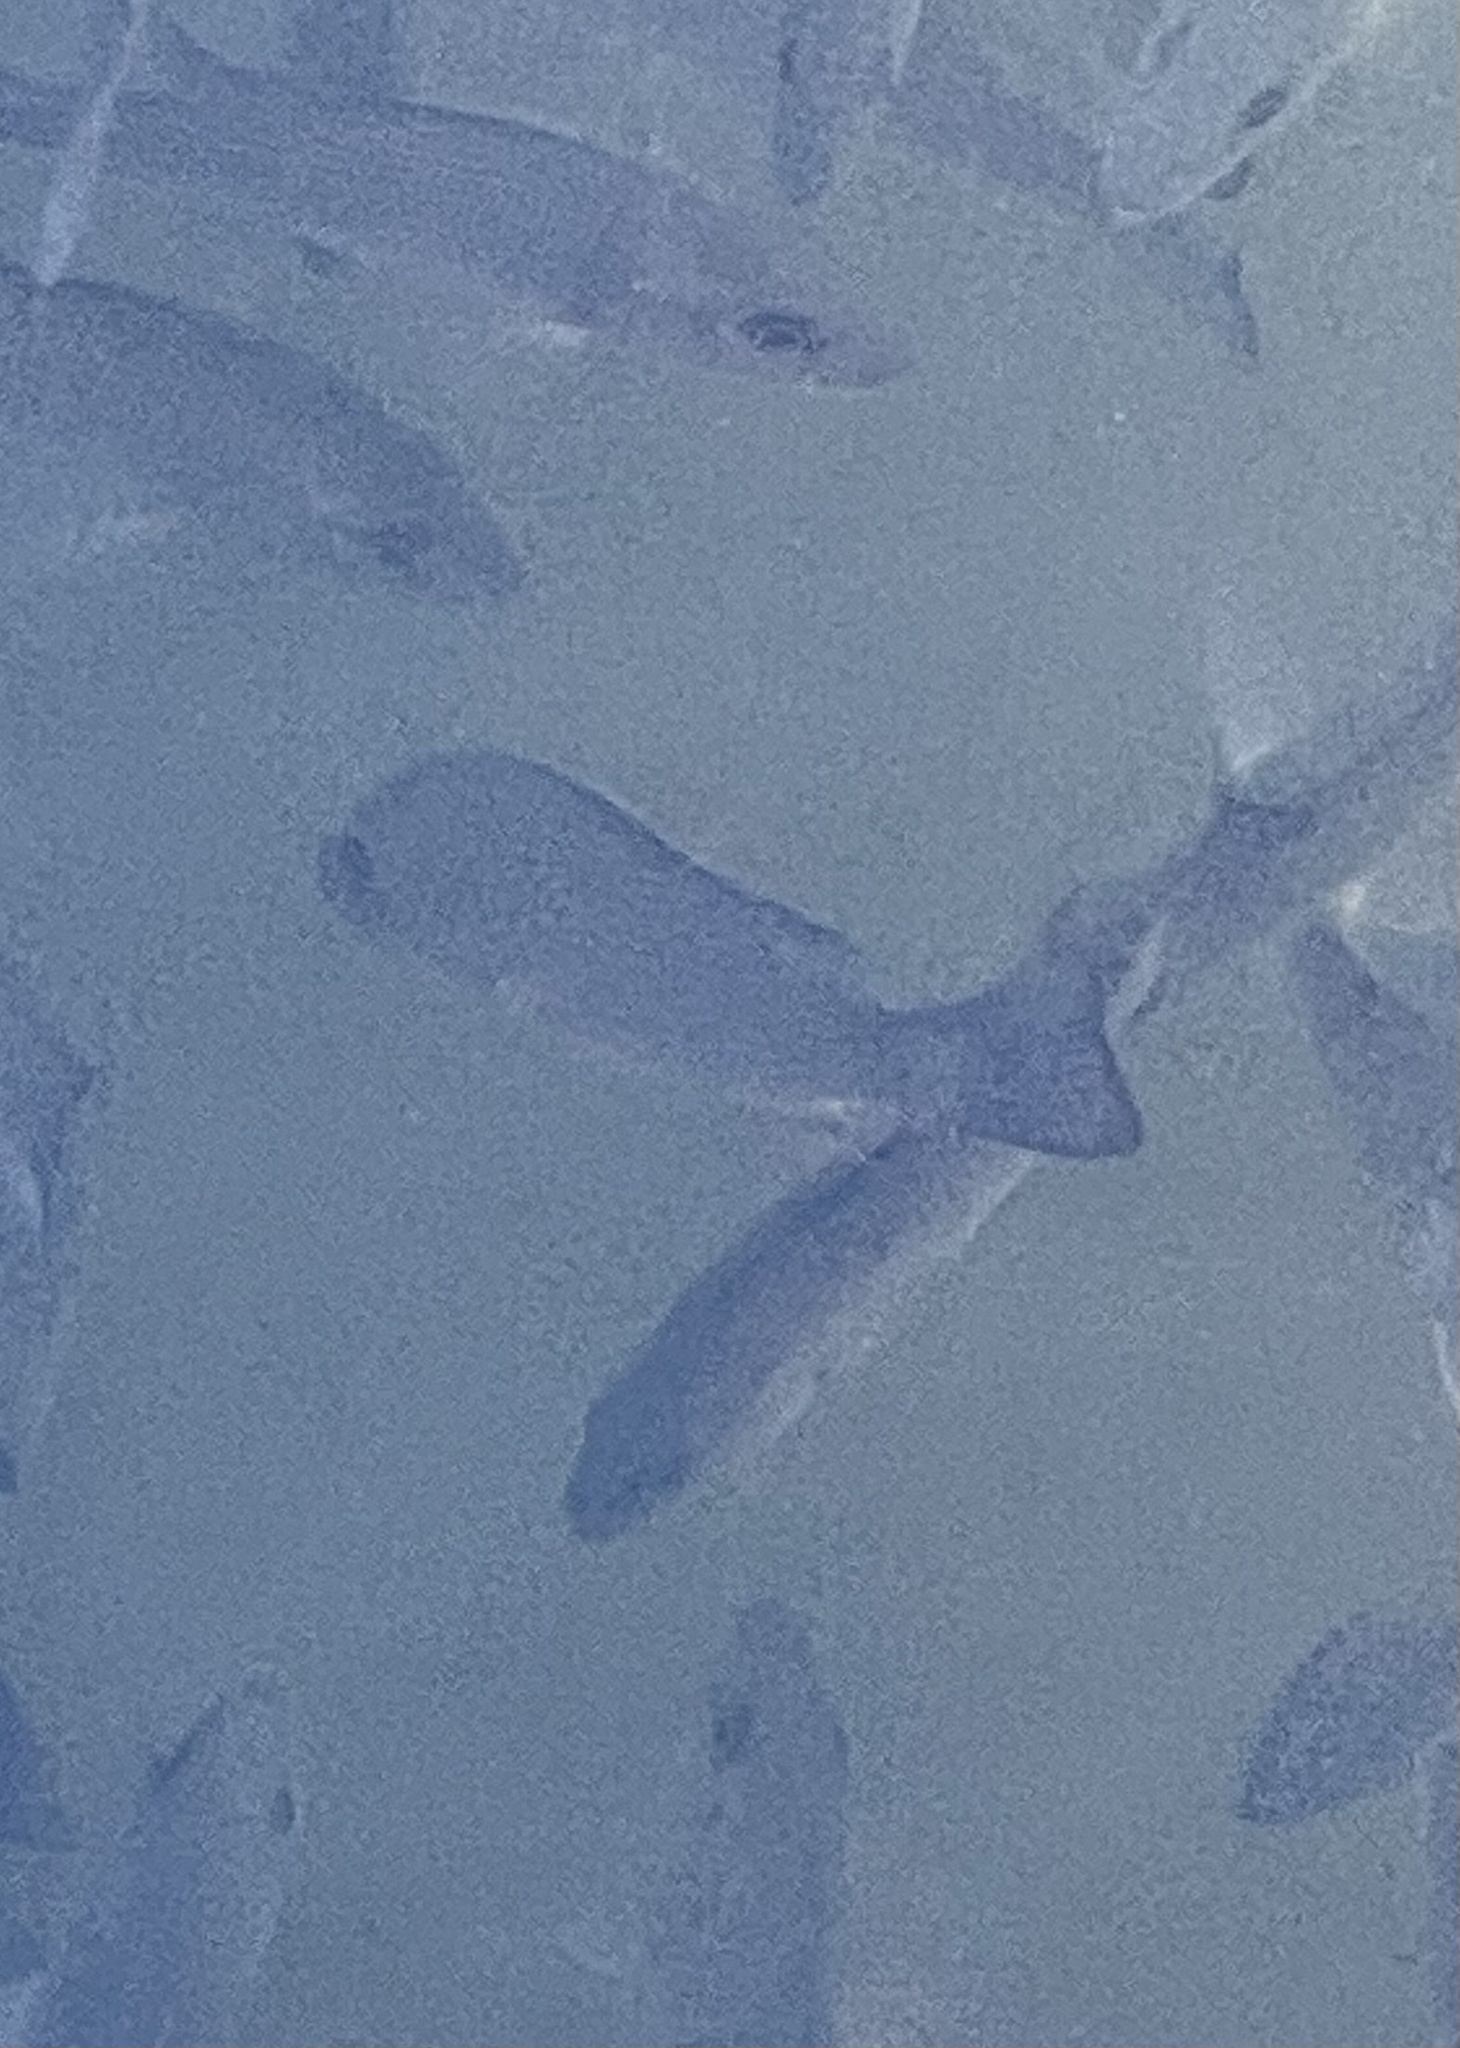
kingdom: Animalia
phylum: Chordata
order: Perciformes
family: Lutjanidae
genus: Lutjanus
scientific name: Lutjanus griseus
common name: Gray snapper
